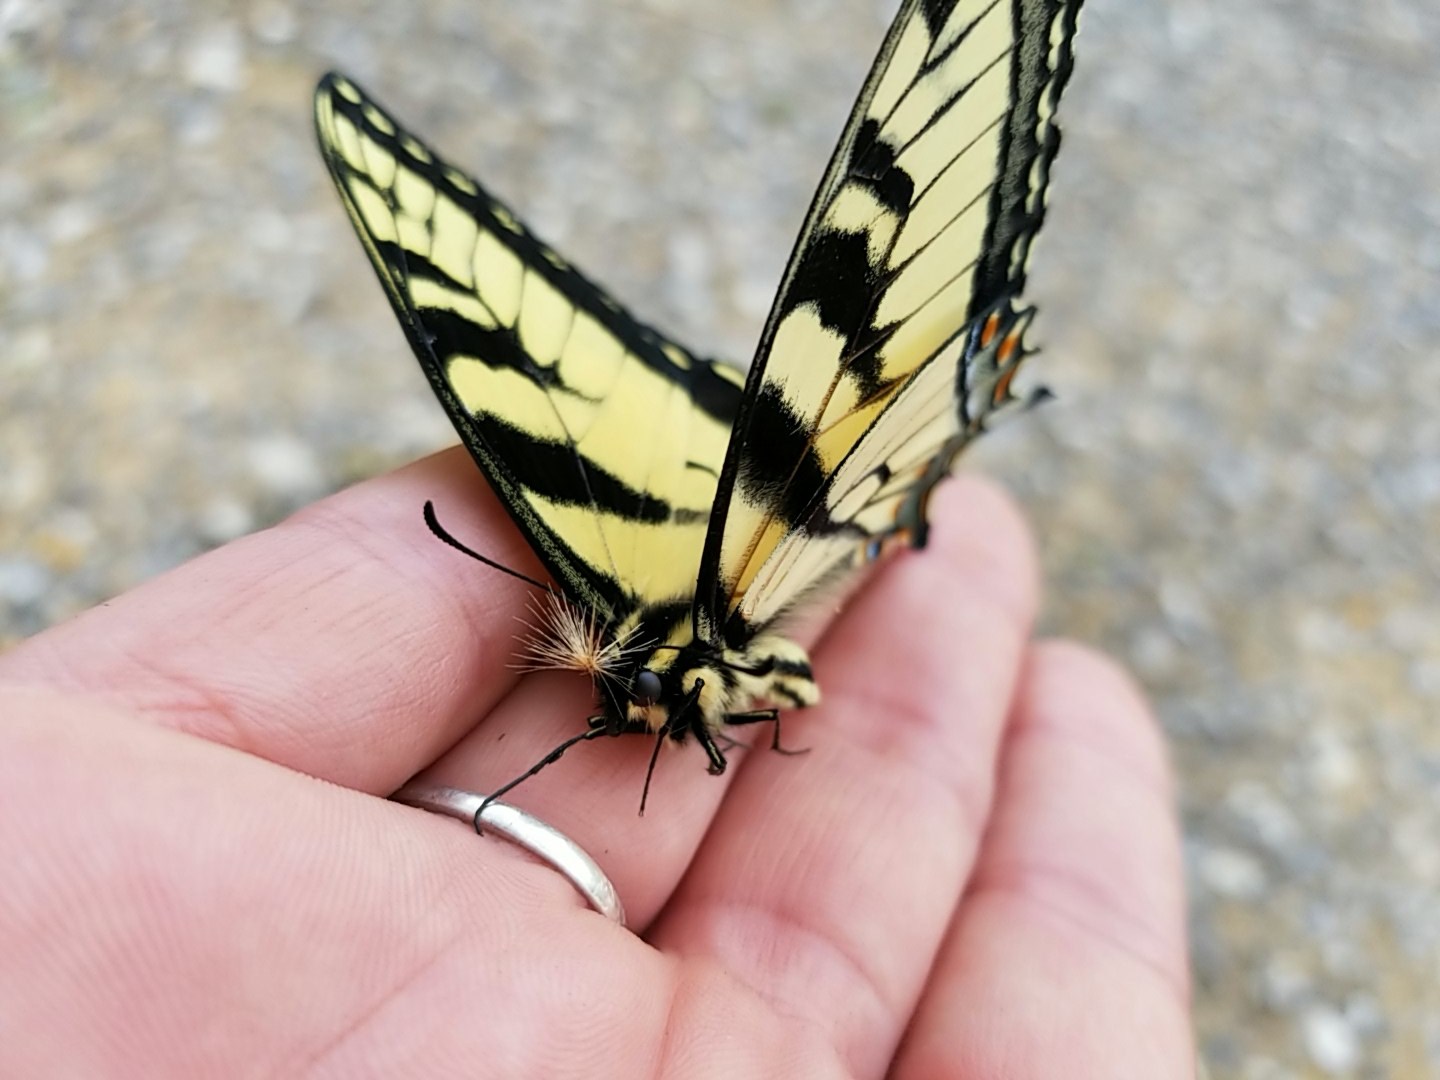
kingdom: Animalia
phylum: Arthropoda
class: Insecta
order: Lepidoptera
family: Papilionidae
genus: Papilio
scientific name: Papilio glaucus
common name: Tiger swallowtail
